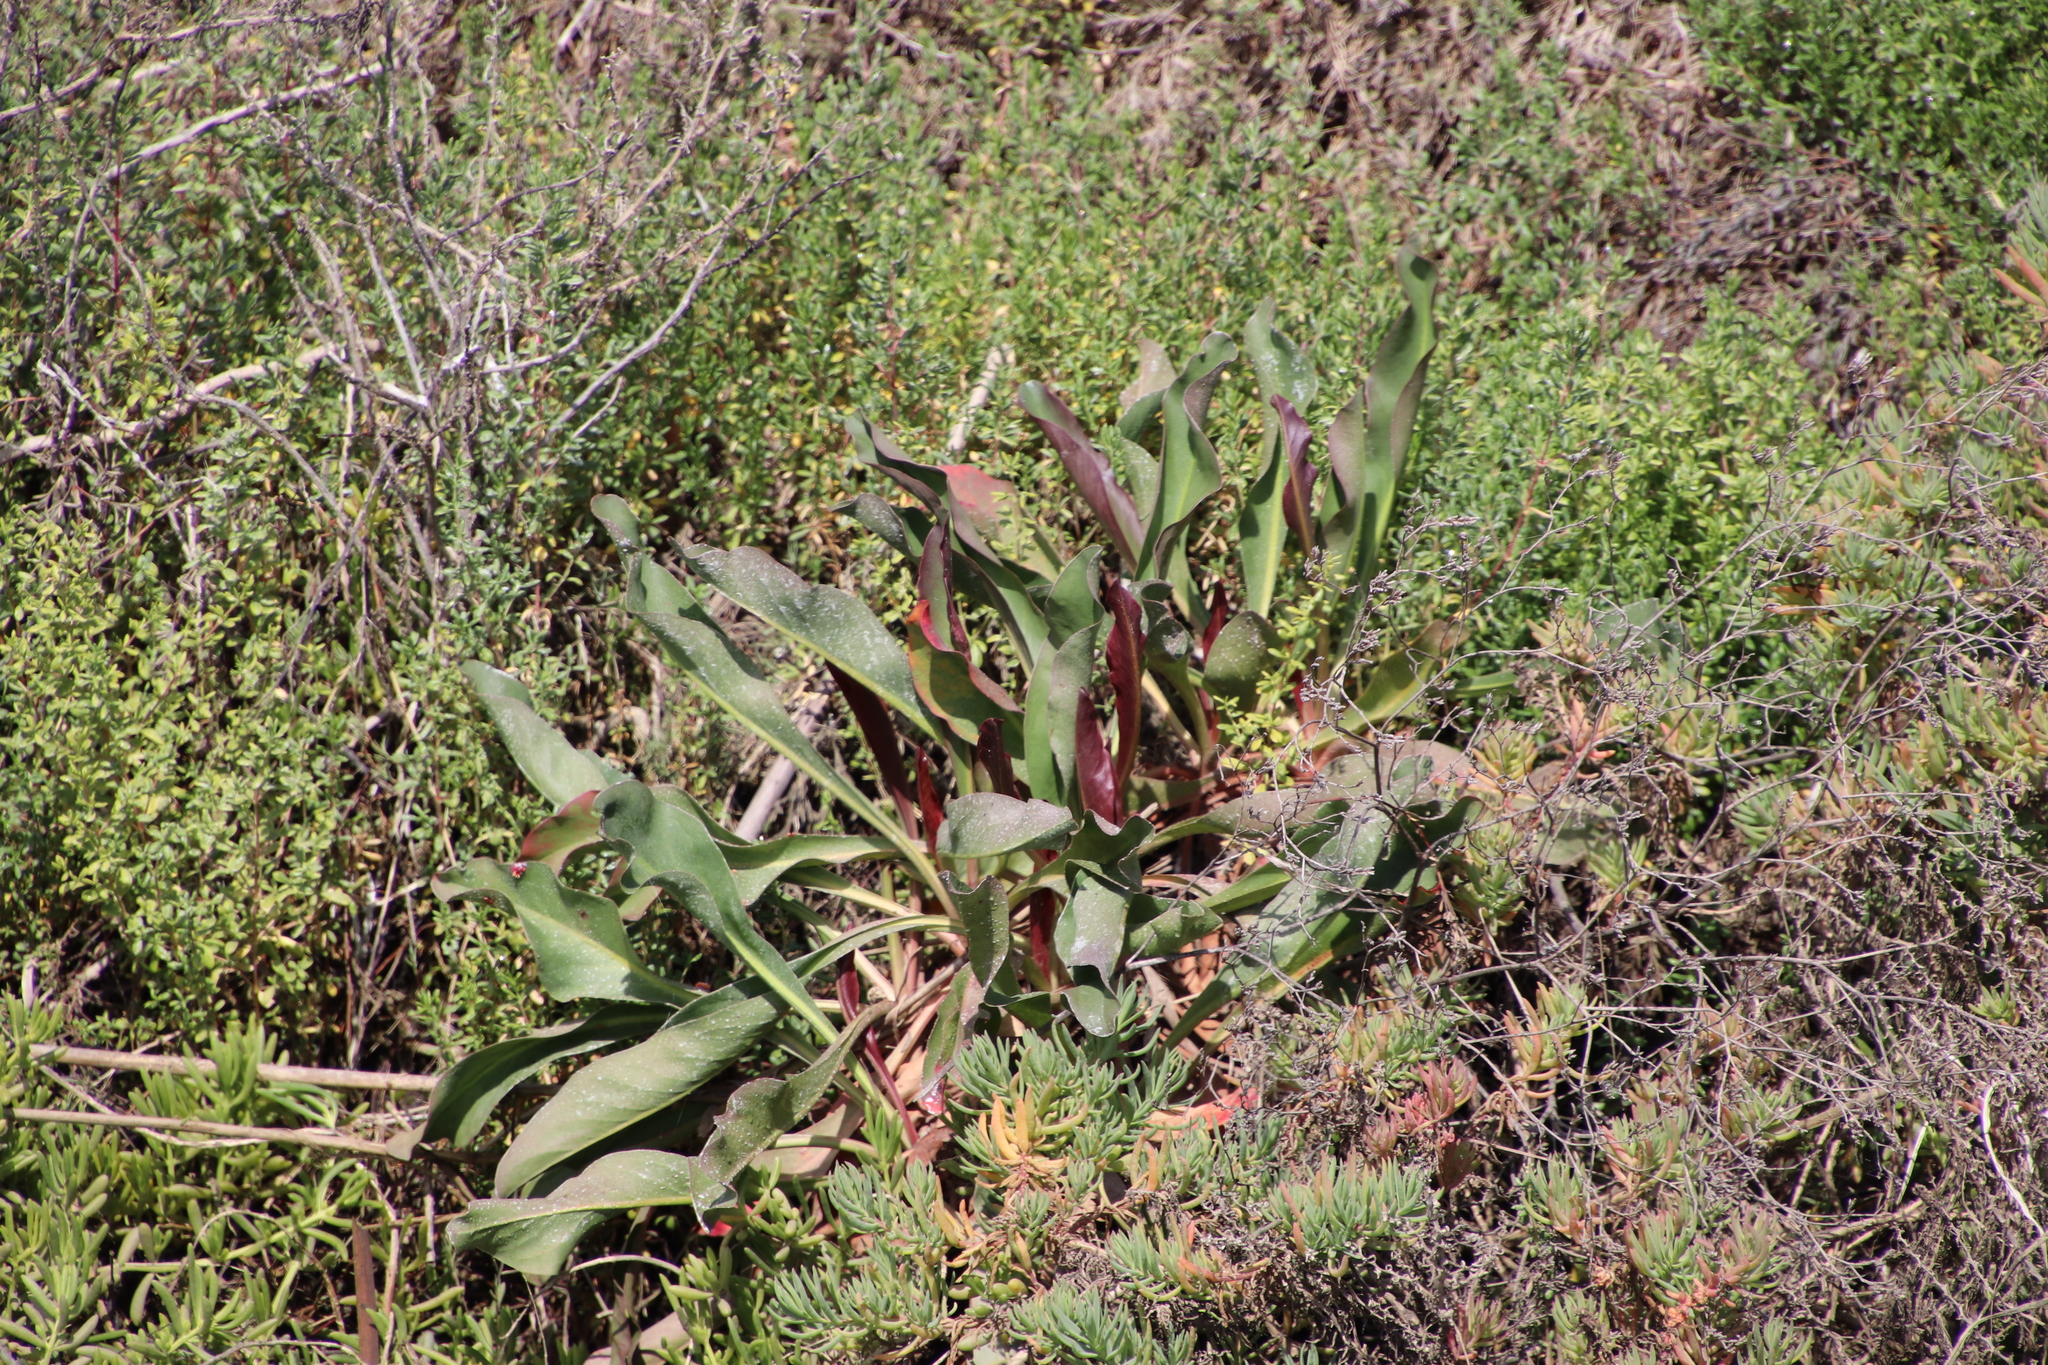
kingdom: Plantae
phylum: Tracheophyta
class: Magnoliopsida
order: Caryophyllales
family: Plumbaginaceae
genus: Limonium
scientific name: Limonium californicum
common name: Marsh-rosemary
